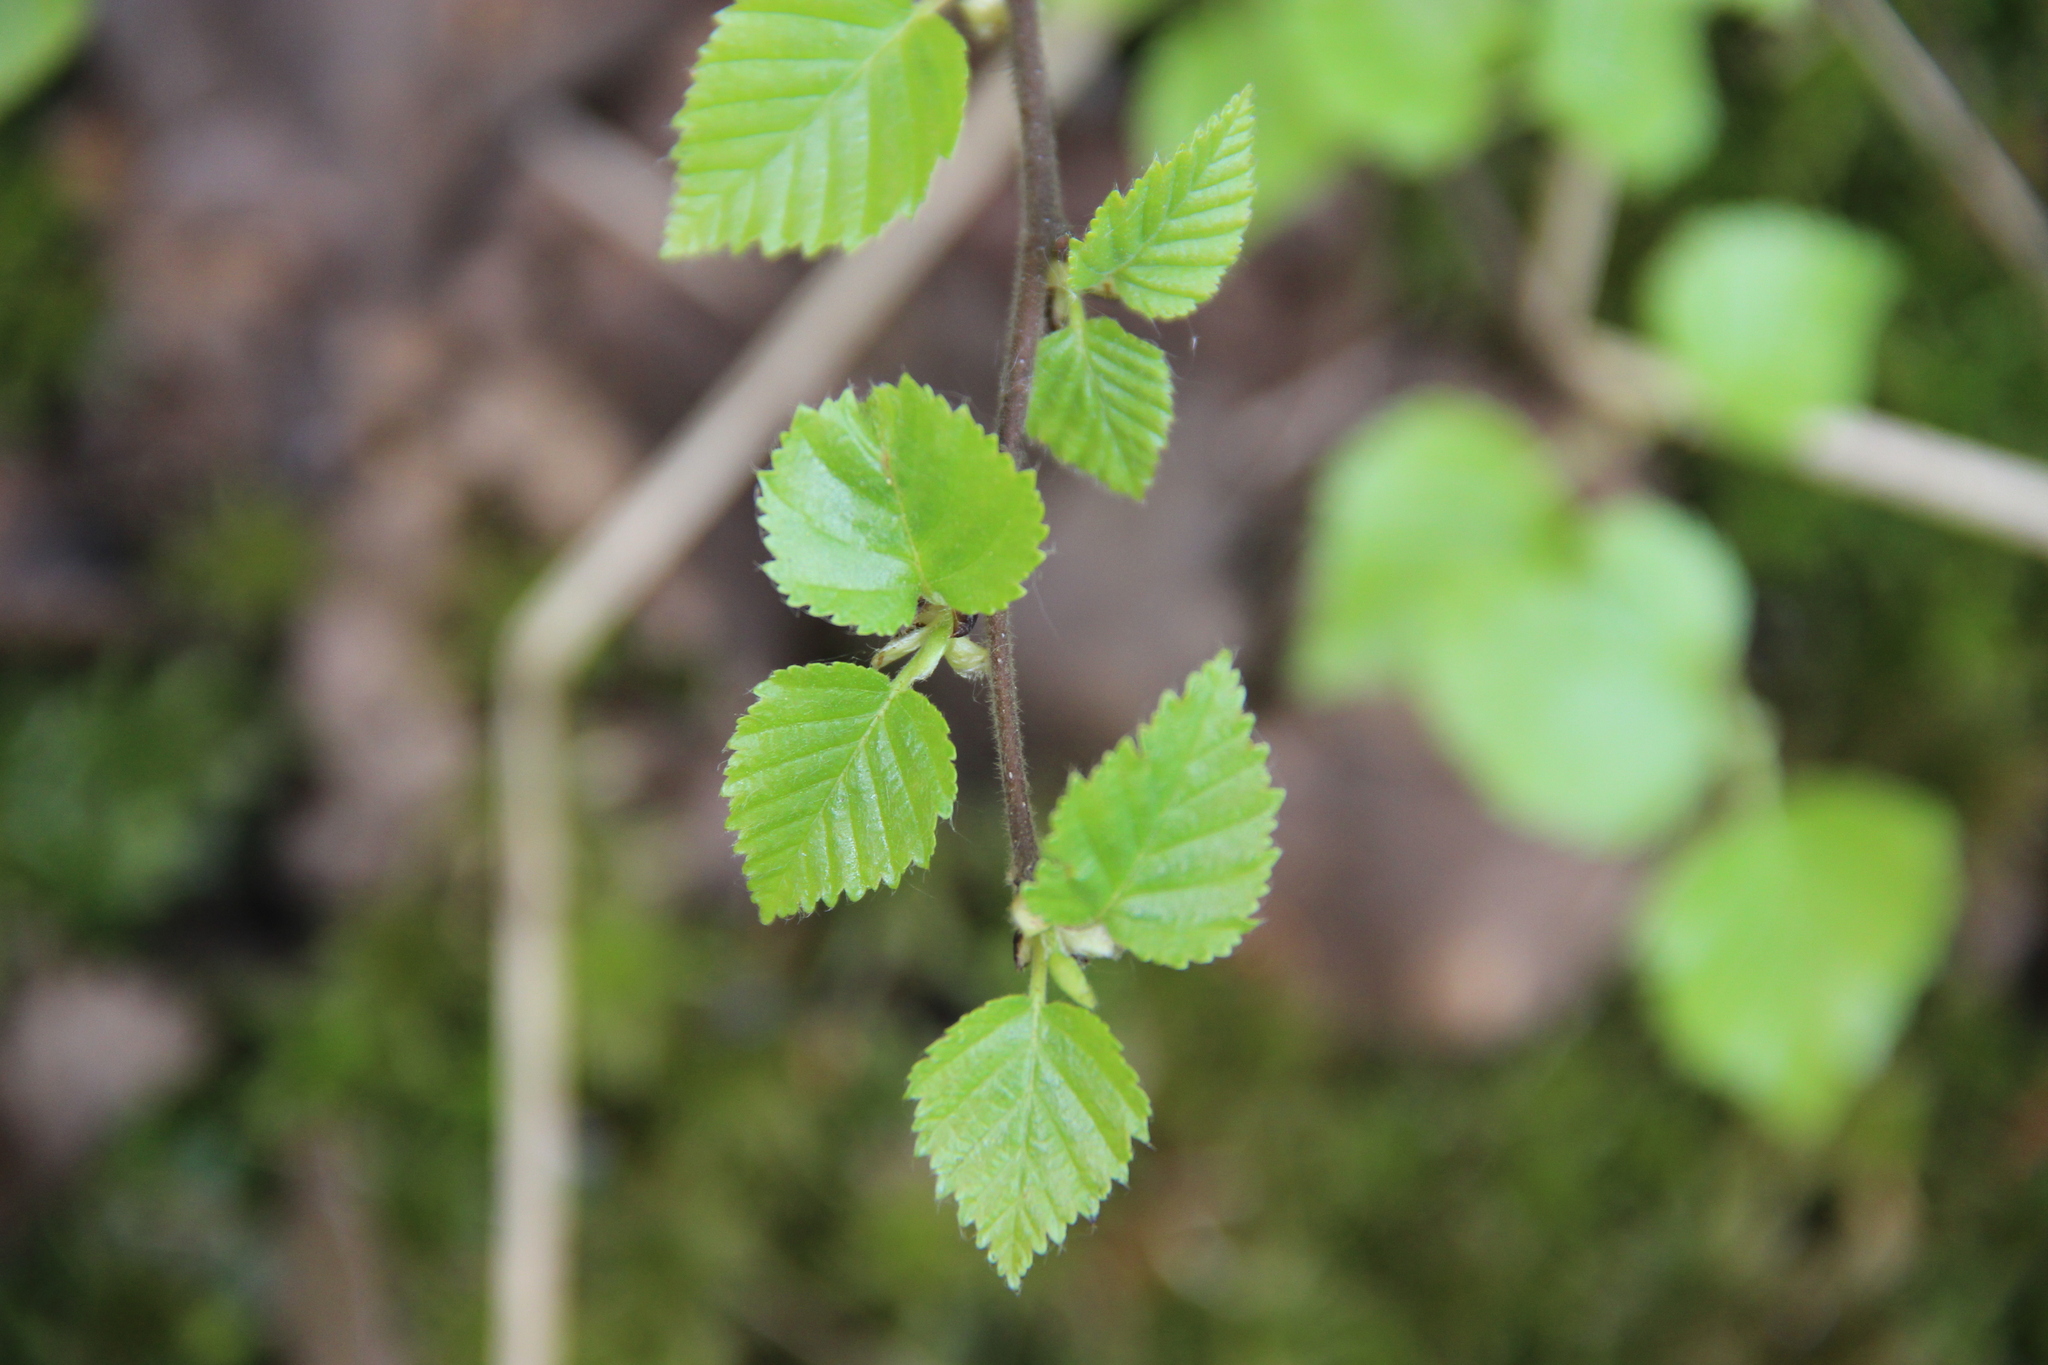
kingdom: Plantae
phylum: Tracheophyta
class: Magnoliopsida
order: Fagales
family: Betulaceae
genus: Betula
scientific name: Betula pubescens
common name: Downy birch
